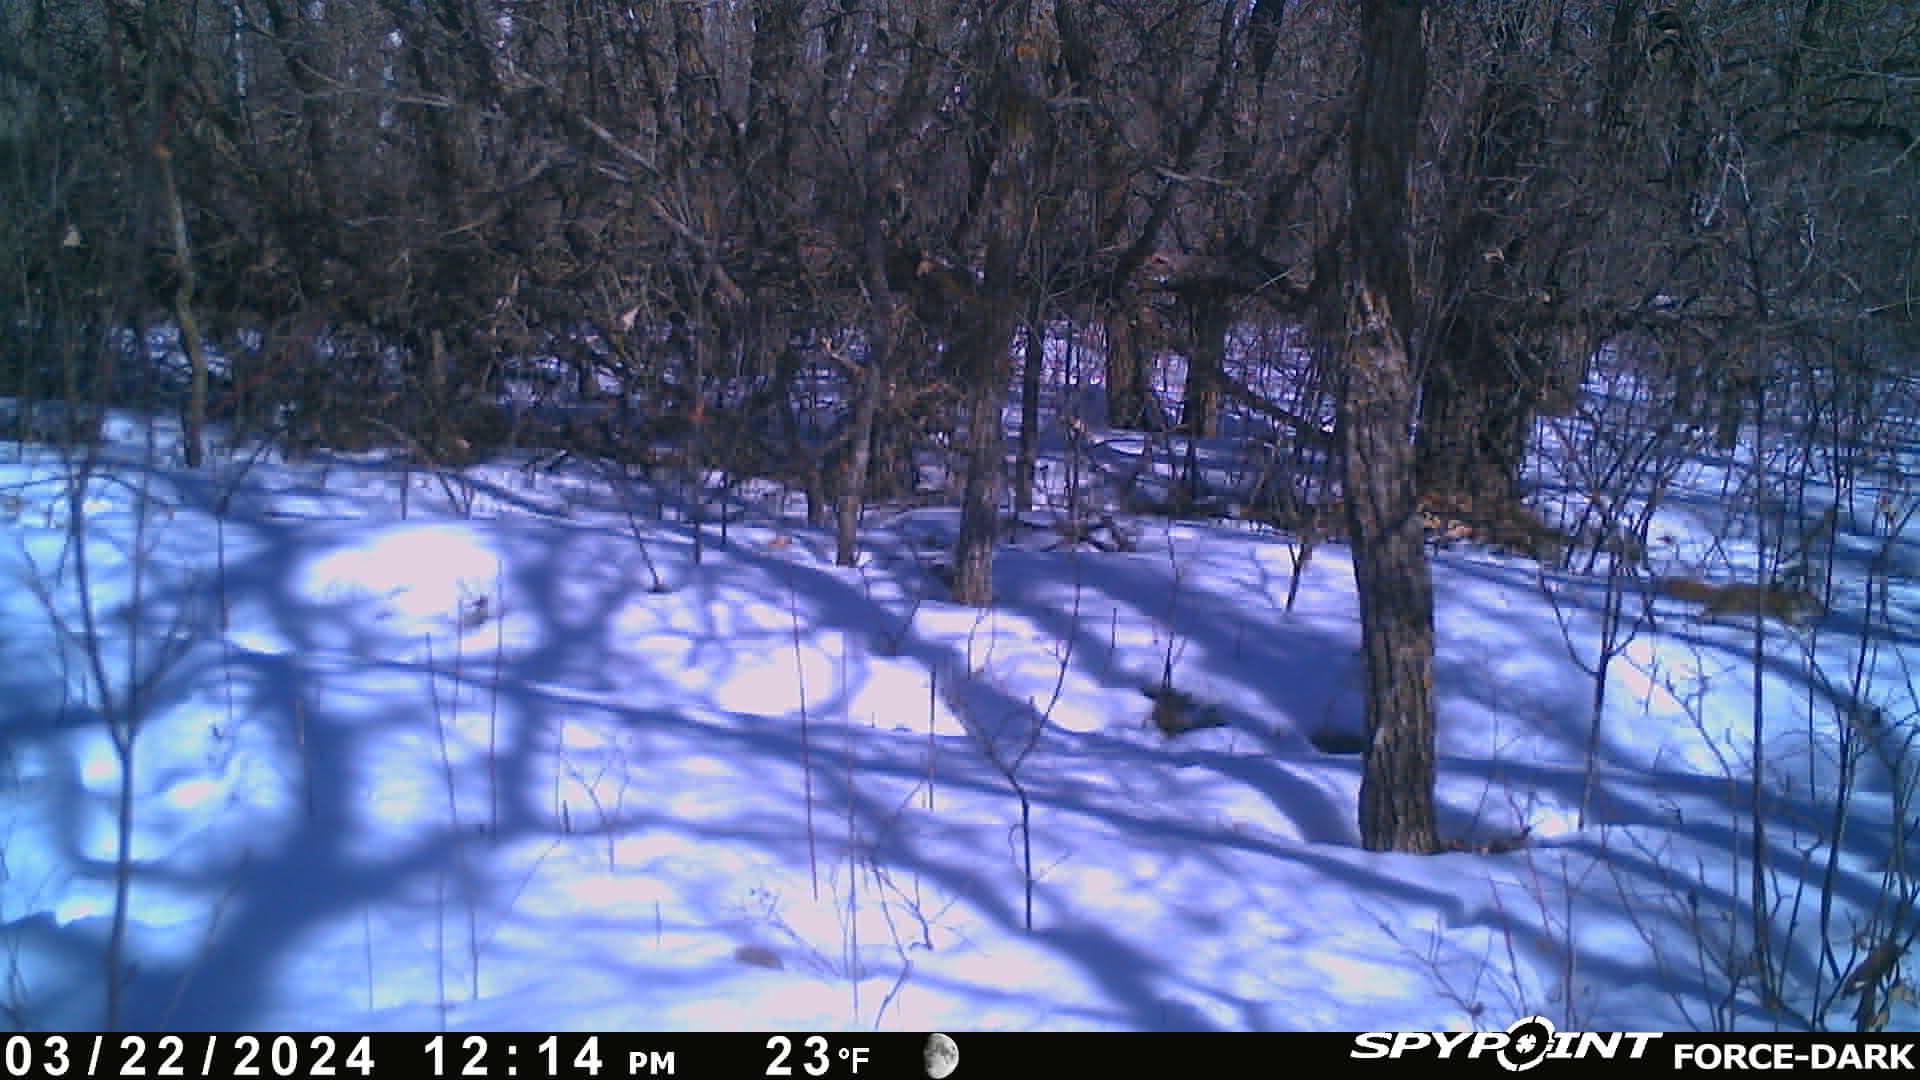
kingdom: Animalia
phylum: Chordata
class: Mammalia
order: Rodentia
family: Sciuridae
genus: Tamiasciurus
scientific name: Tamiasciurus hudsonicus
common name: Red squirrel
